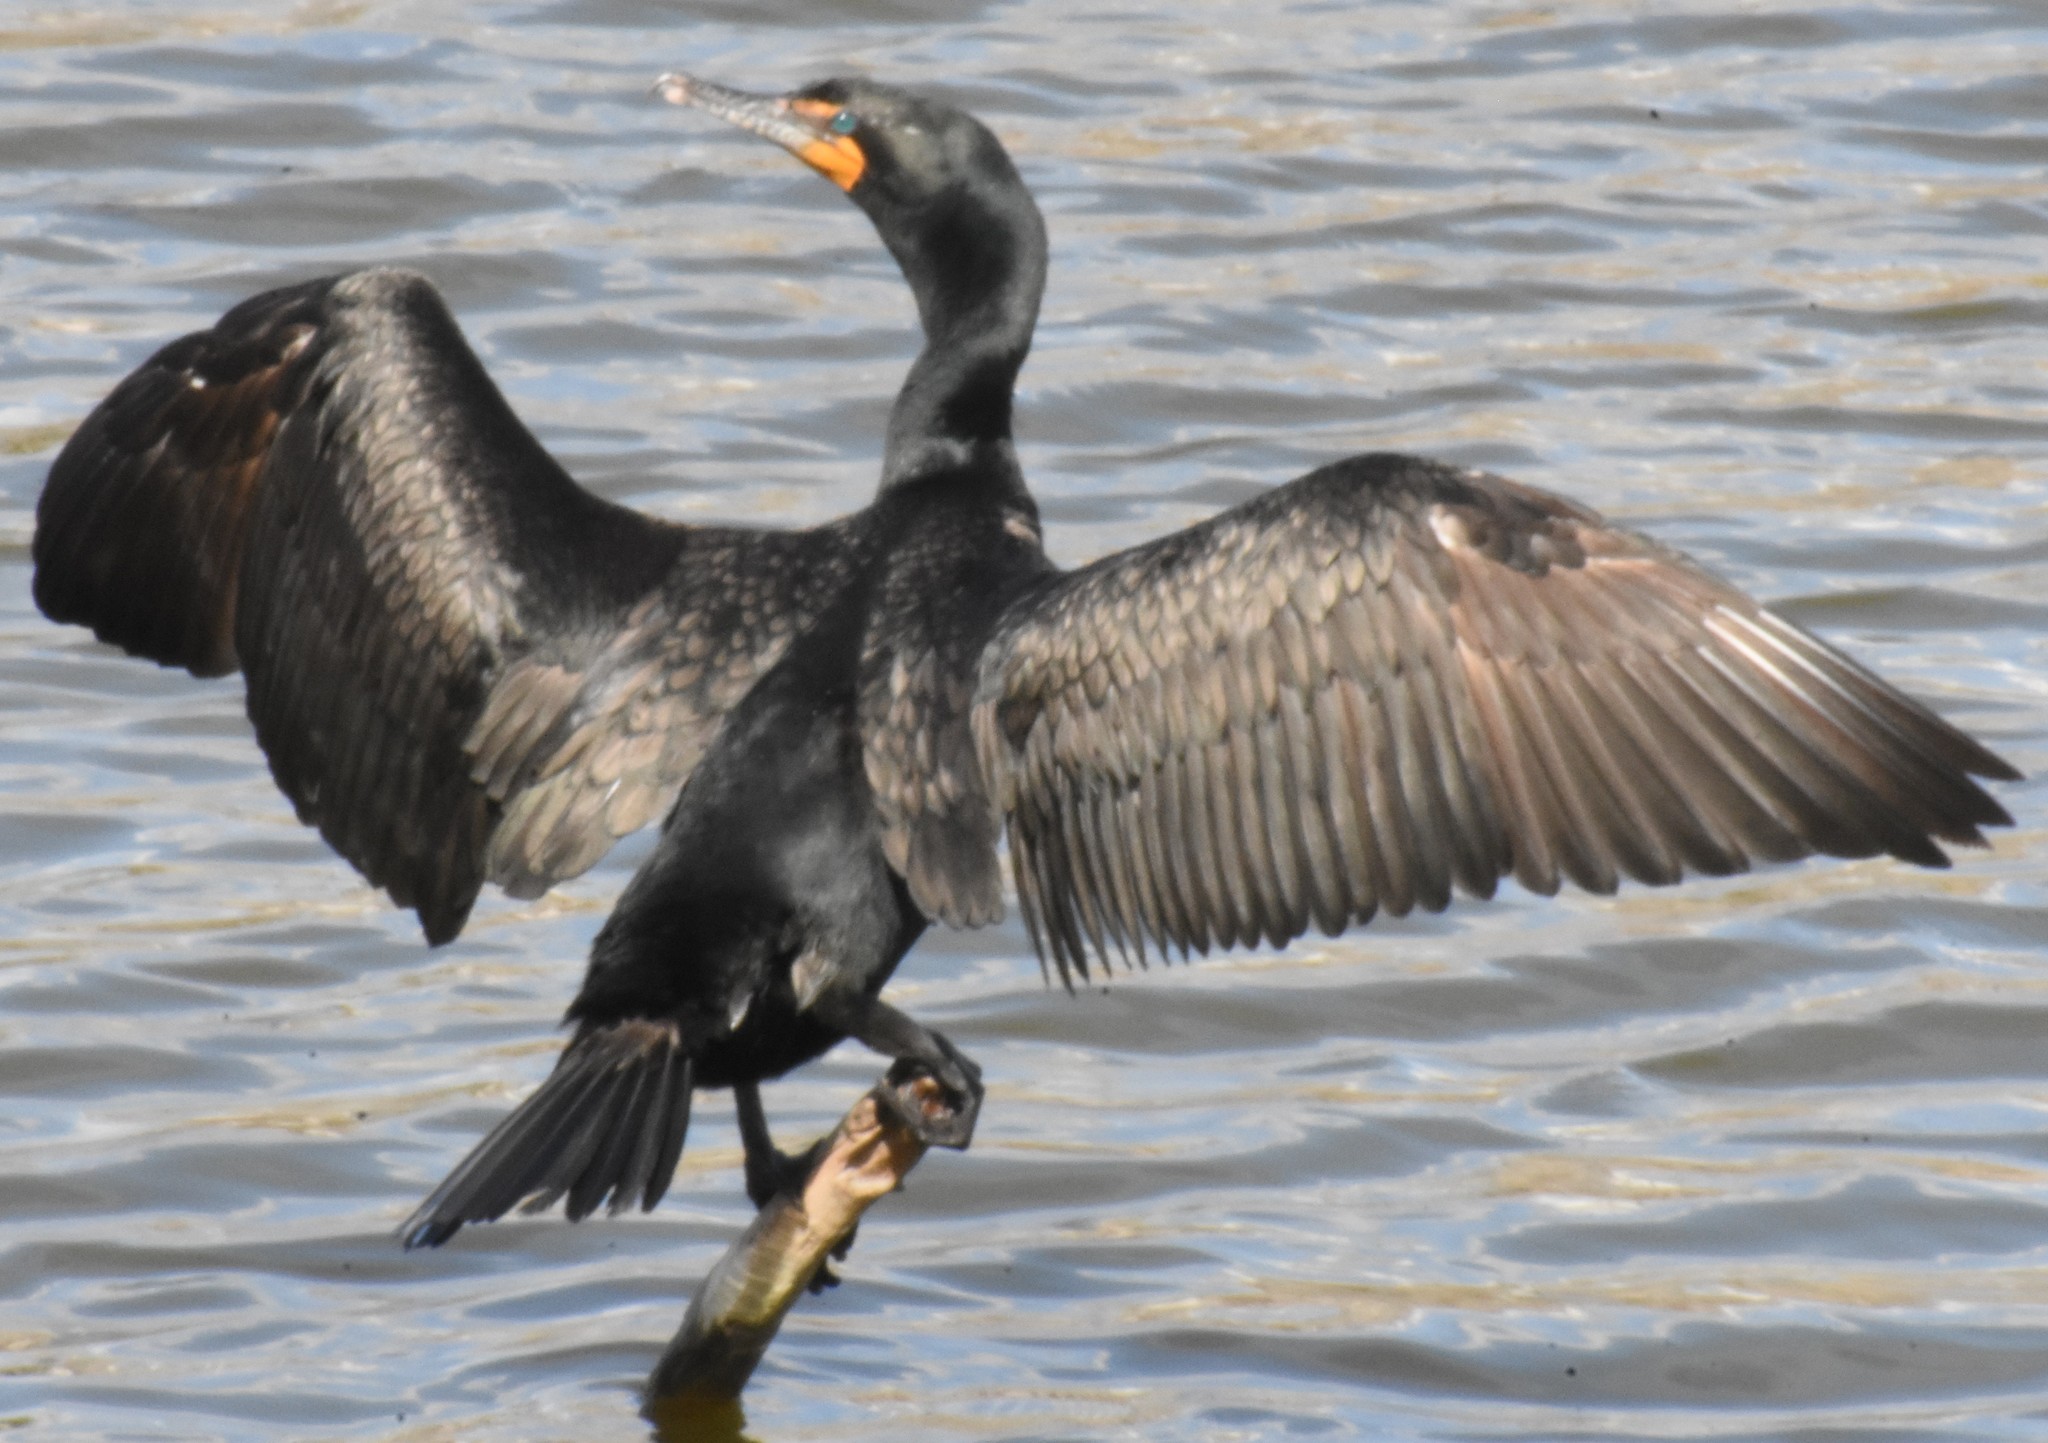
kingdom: Animalia
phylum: Chordata
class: Aves
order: Suliformes
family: Phalacrocoracidae
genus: Phalacrocorax
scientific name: Phalacrocorax auritus
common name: Double-crested cormorant
